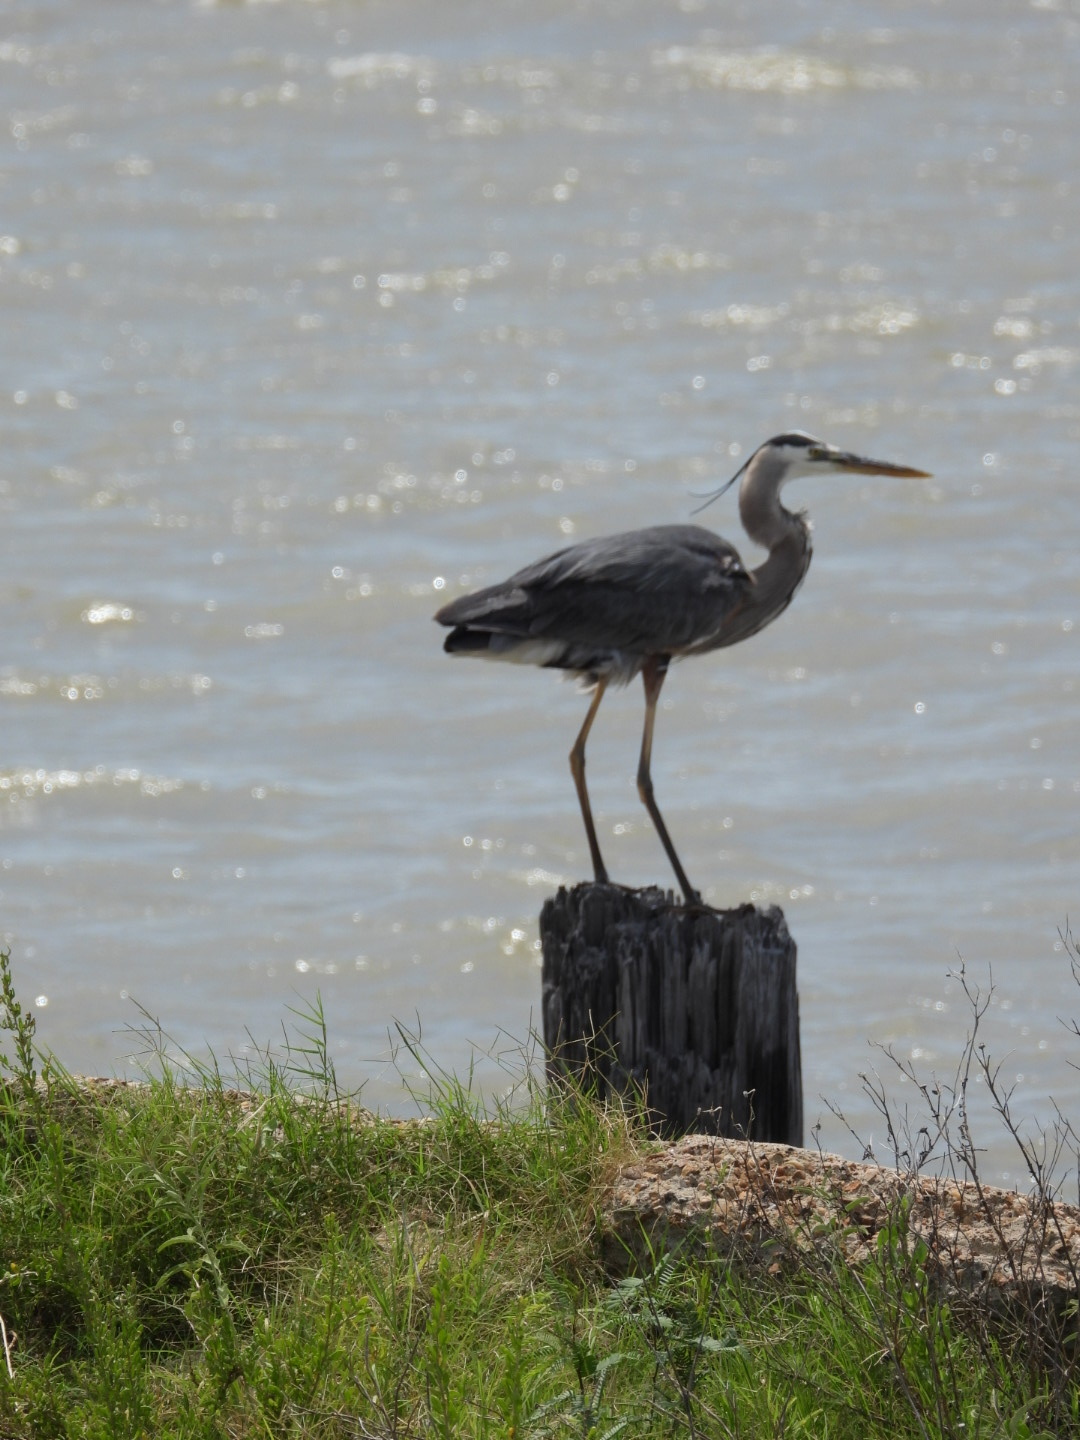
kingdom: Animalia
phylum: Chordata
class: Aves
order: Pelecaniformes
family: Ardeidae
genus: Ardea
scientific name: Ardea herodias
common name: Great blue heron
